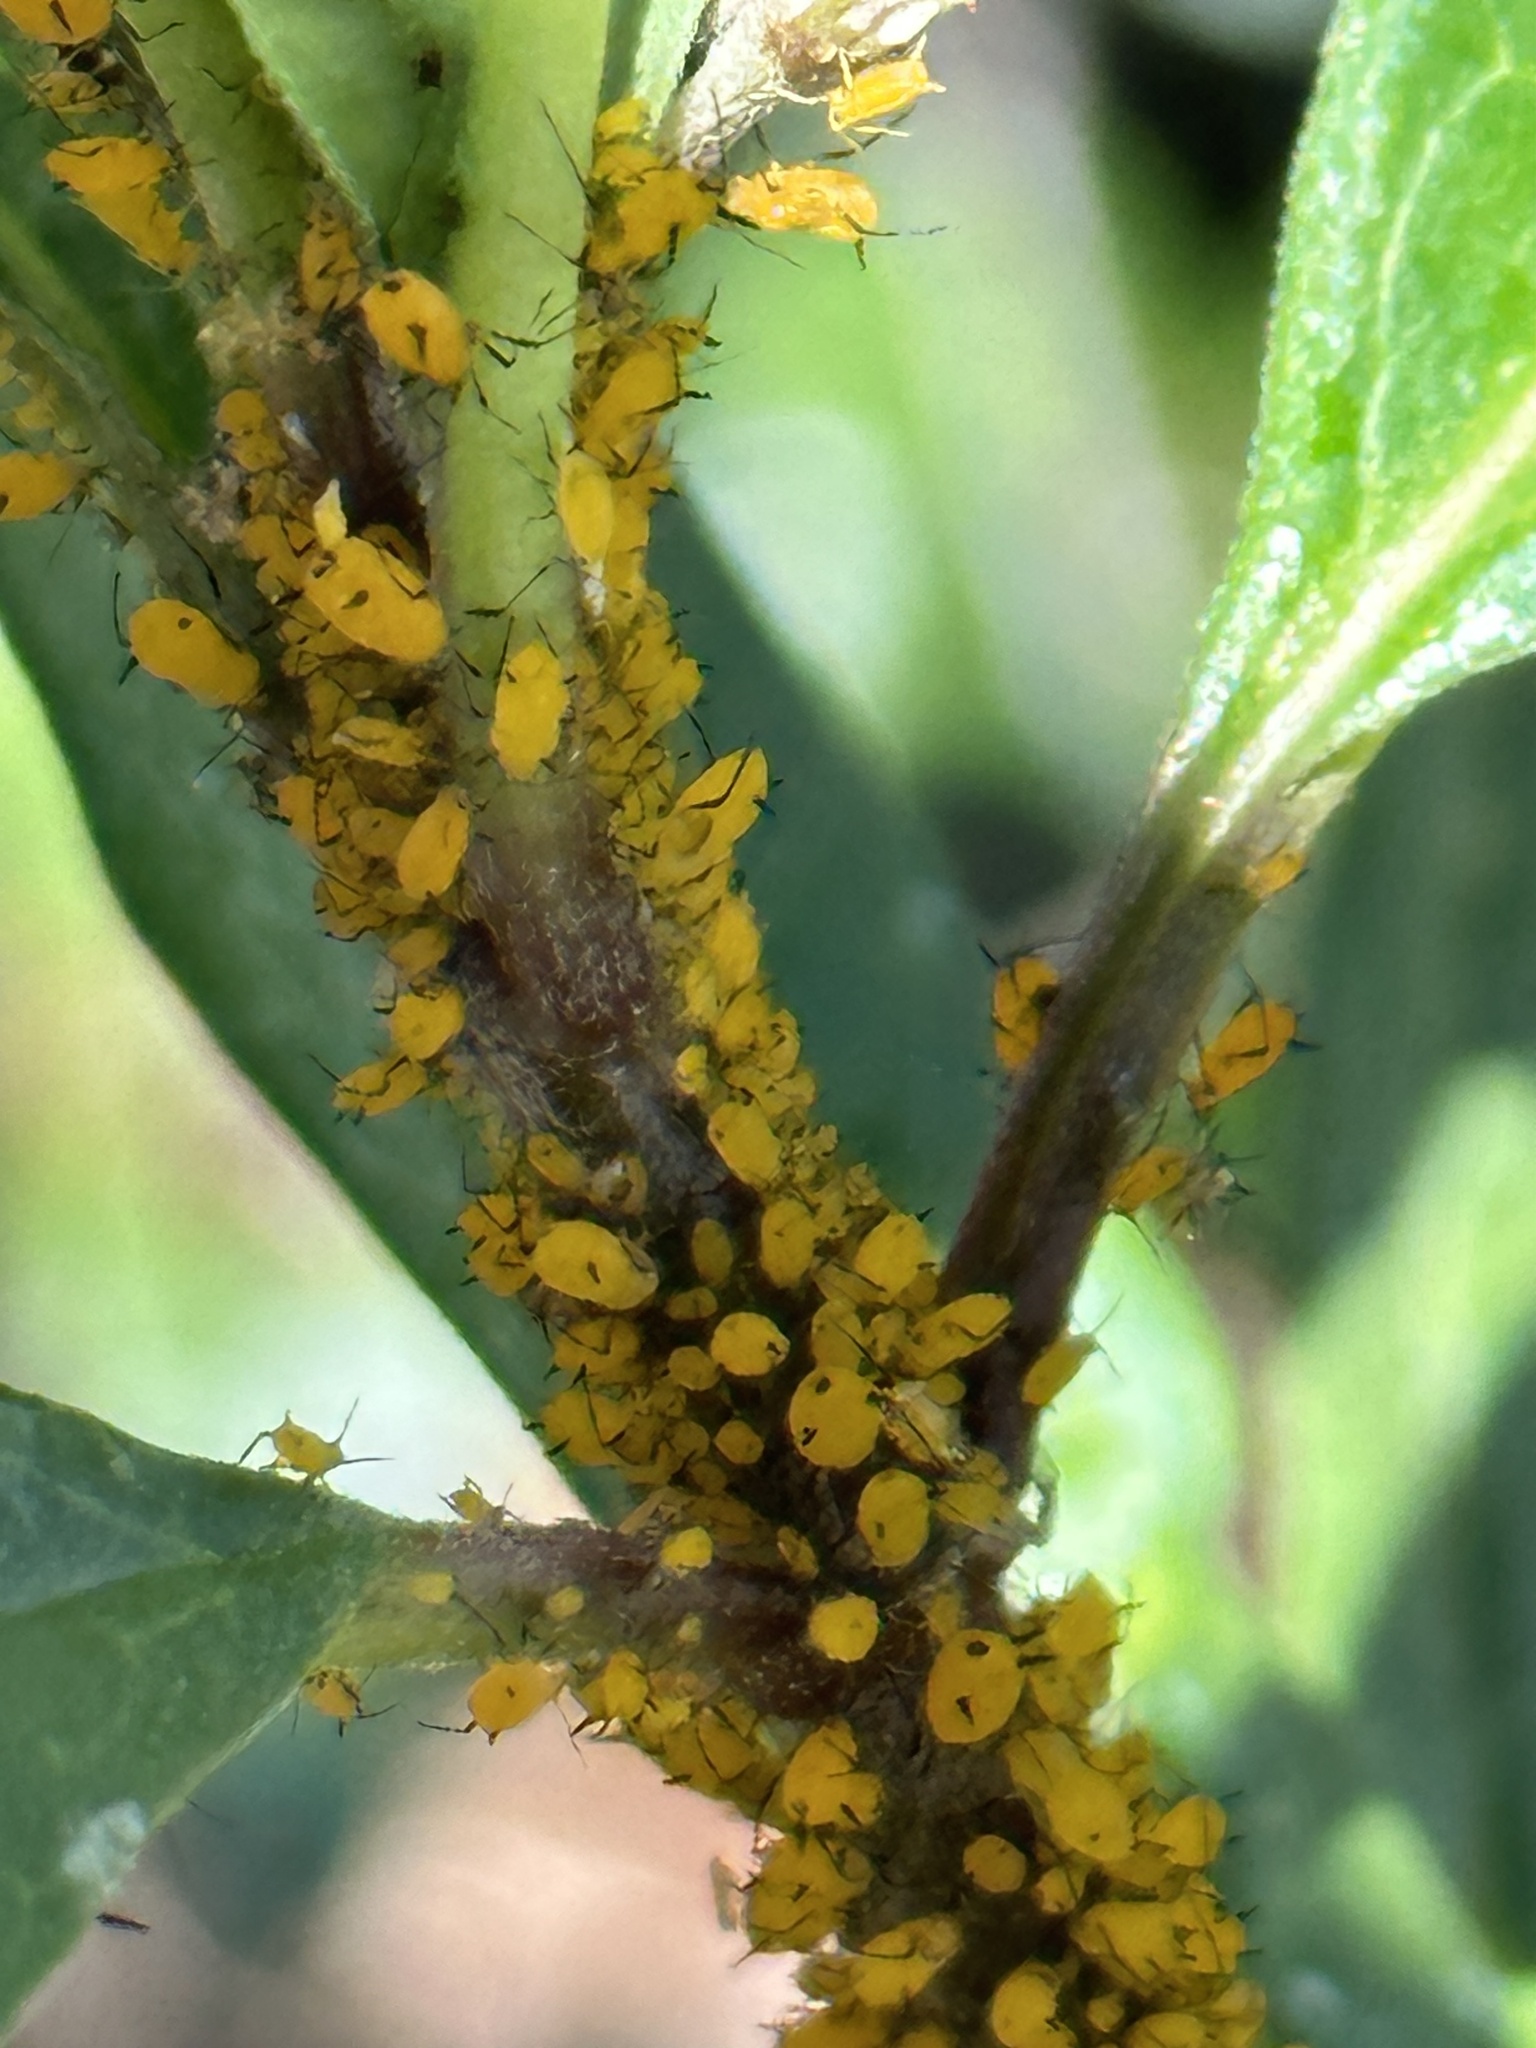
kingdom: Animalia
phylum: Arthropoda
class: Insecta
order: Hemiptera
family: Aphididae
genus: Aphis
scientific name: Aphis nerii
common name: Oleander aphid
